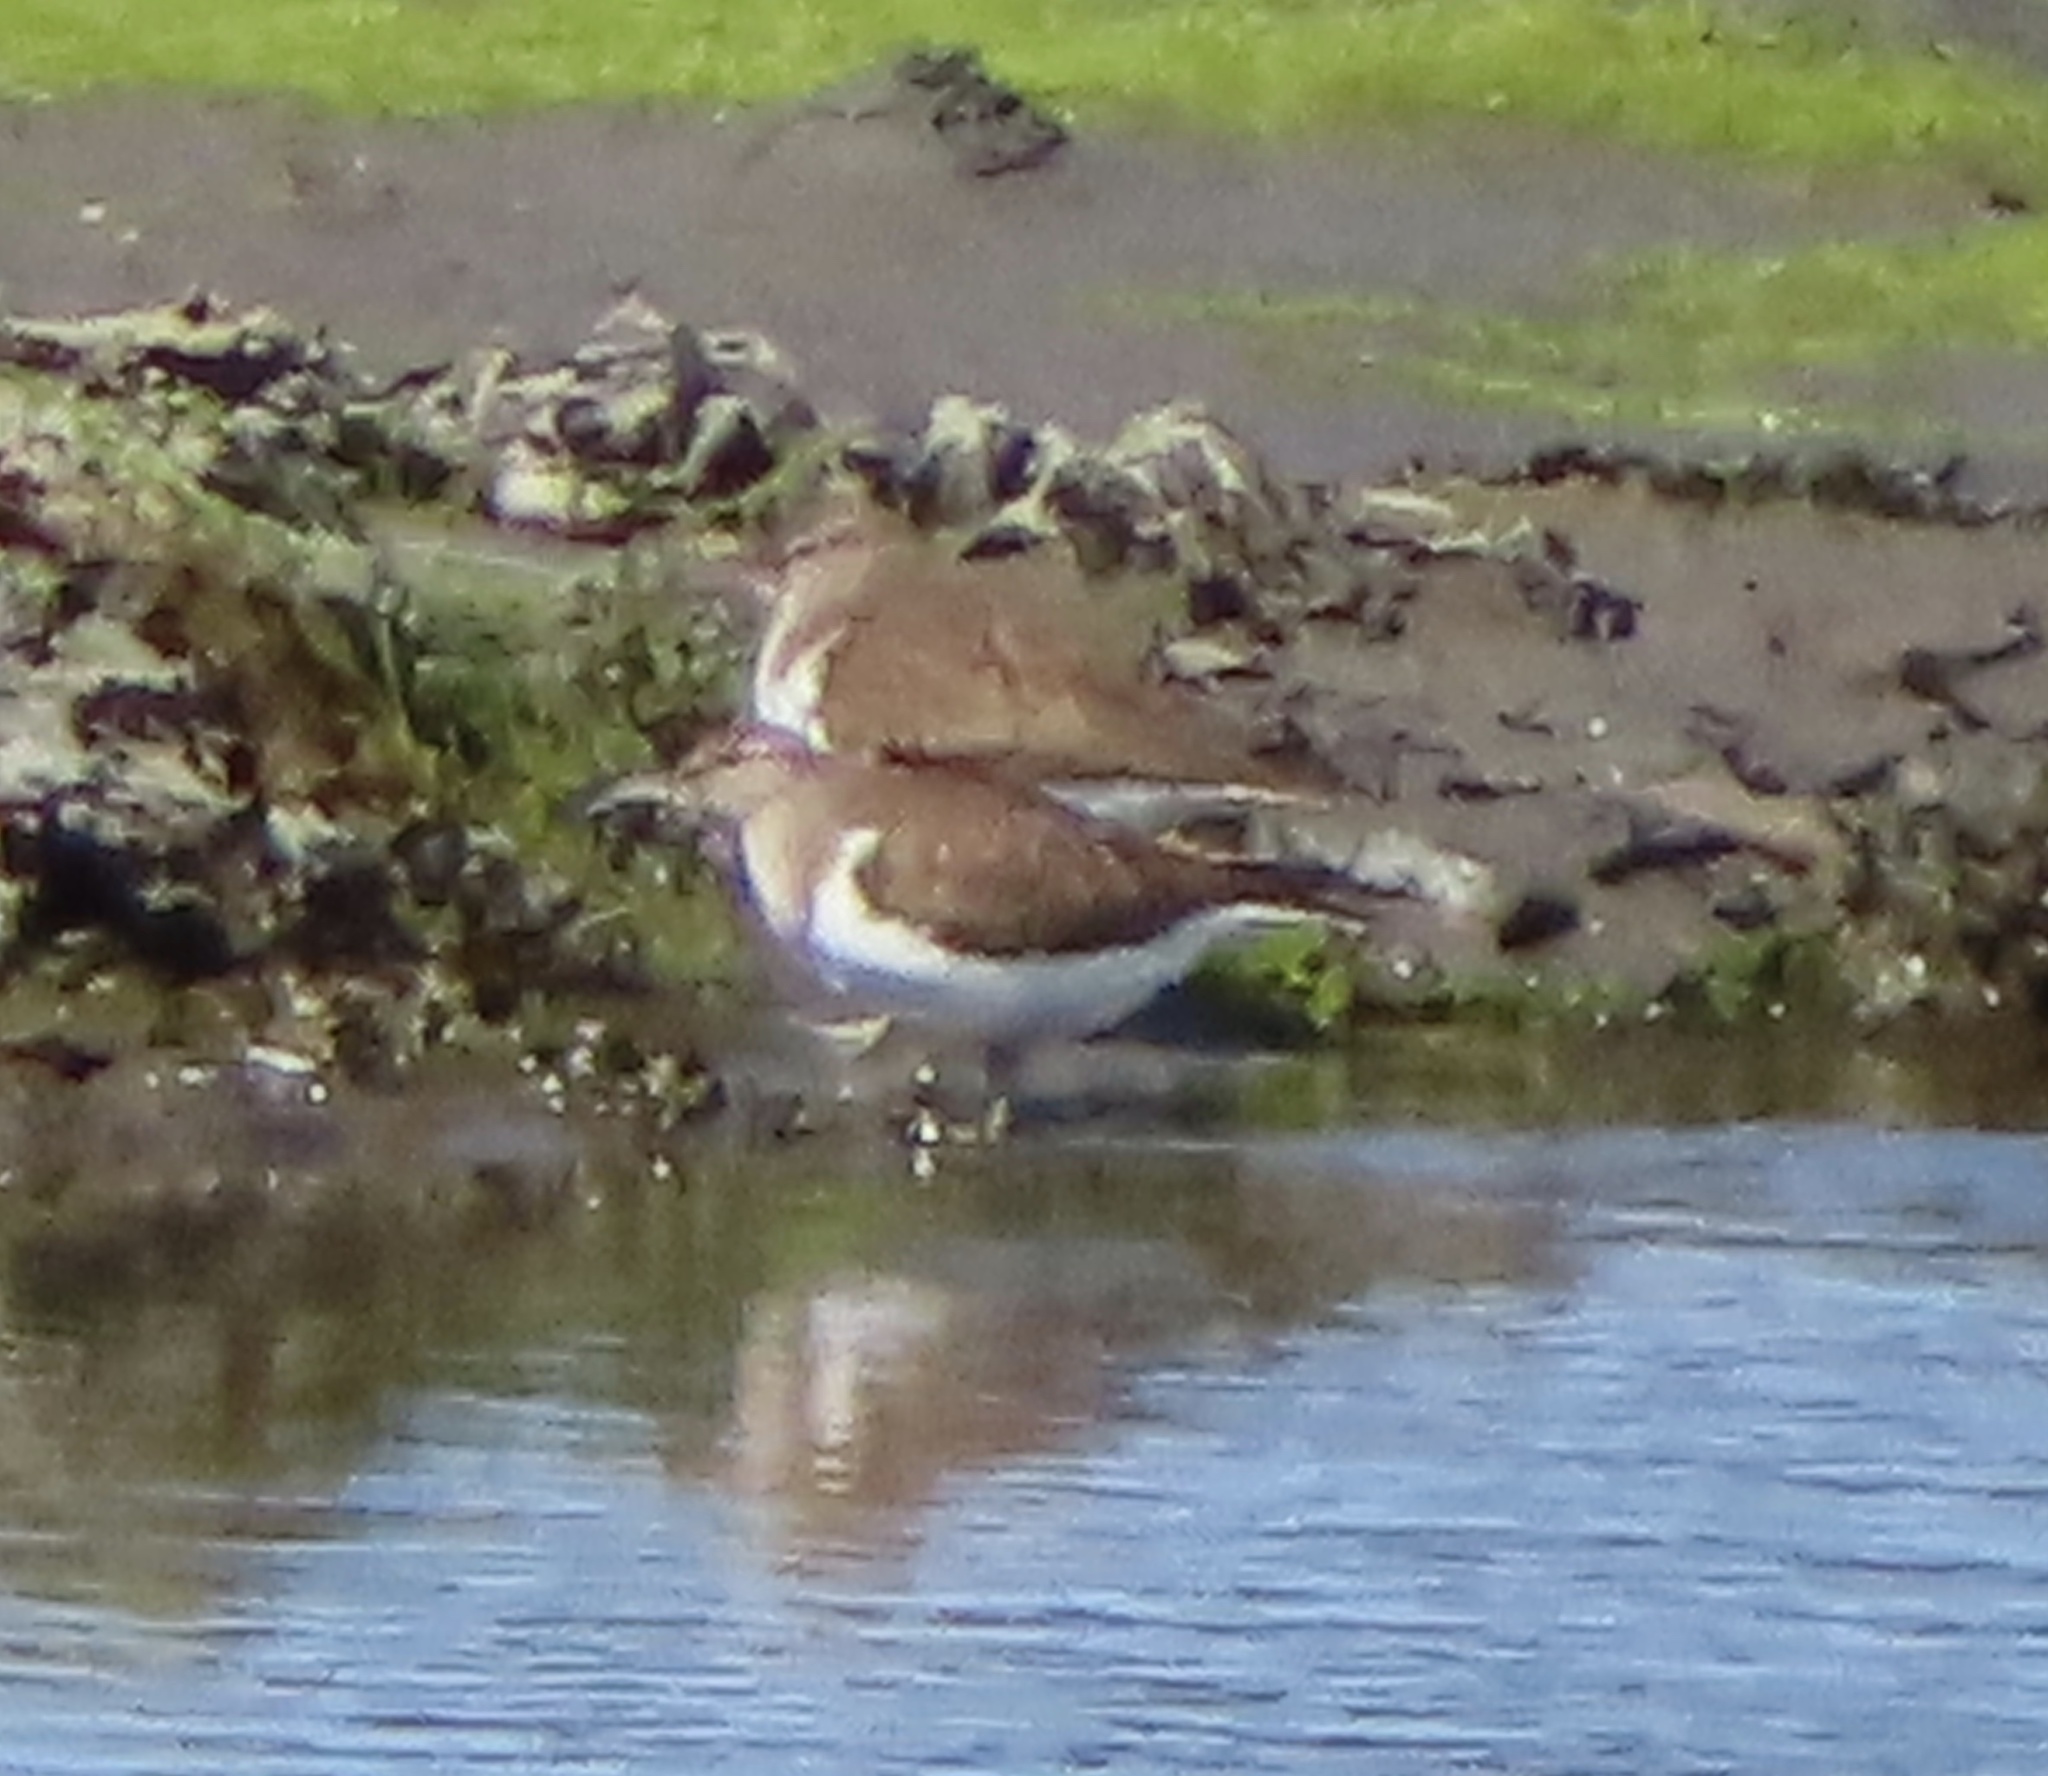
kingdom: Animalia
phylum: Chordata
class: Aves
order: Charadriiformes
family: Scolopacidae
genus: Actitis
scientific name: Actitis hypoleucos
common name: Common sandpiper
